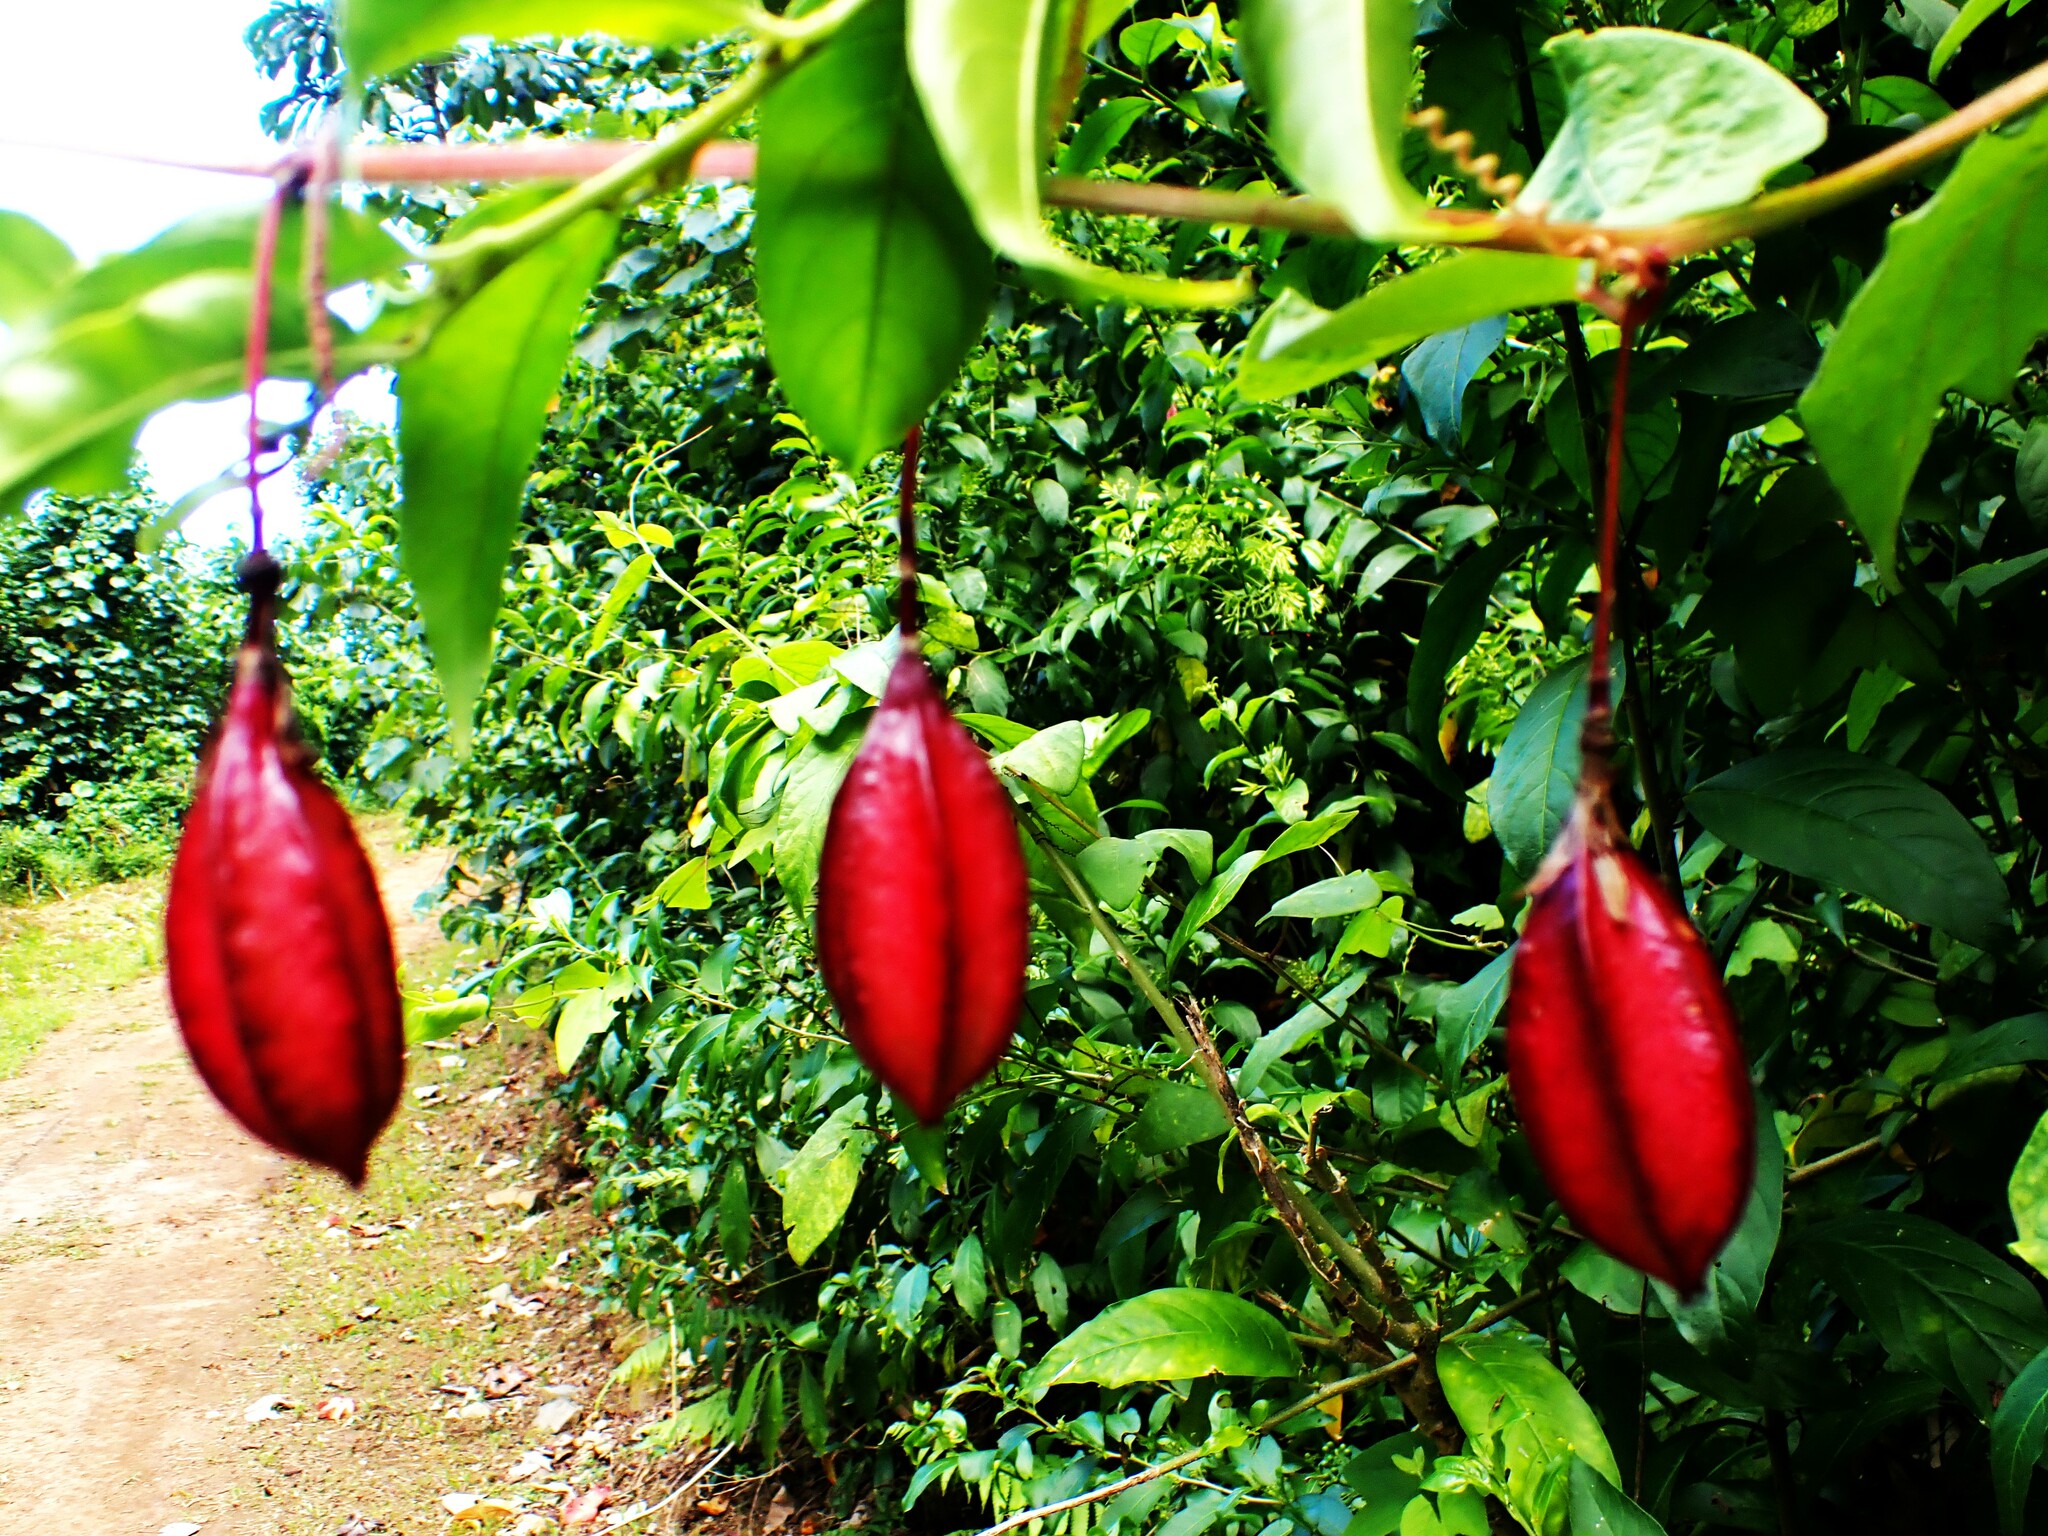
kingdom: Plantae
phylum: Tracheophyta
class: Magnoliopsida
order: Malpighiales
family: Passifloraceae
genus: Passiflora
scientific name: Passiflora rubra
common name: Snakeberry vine
